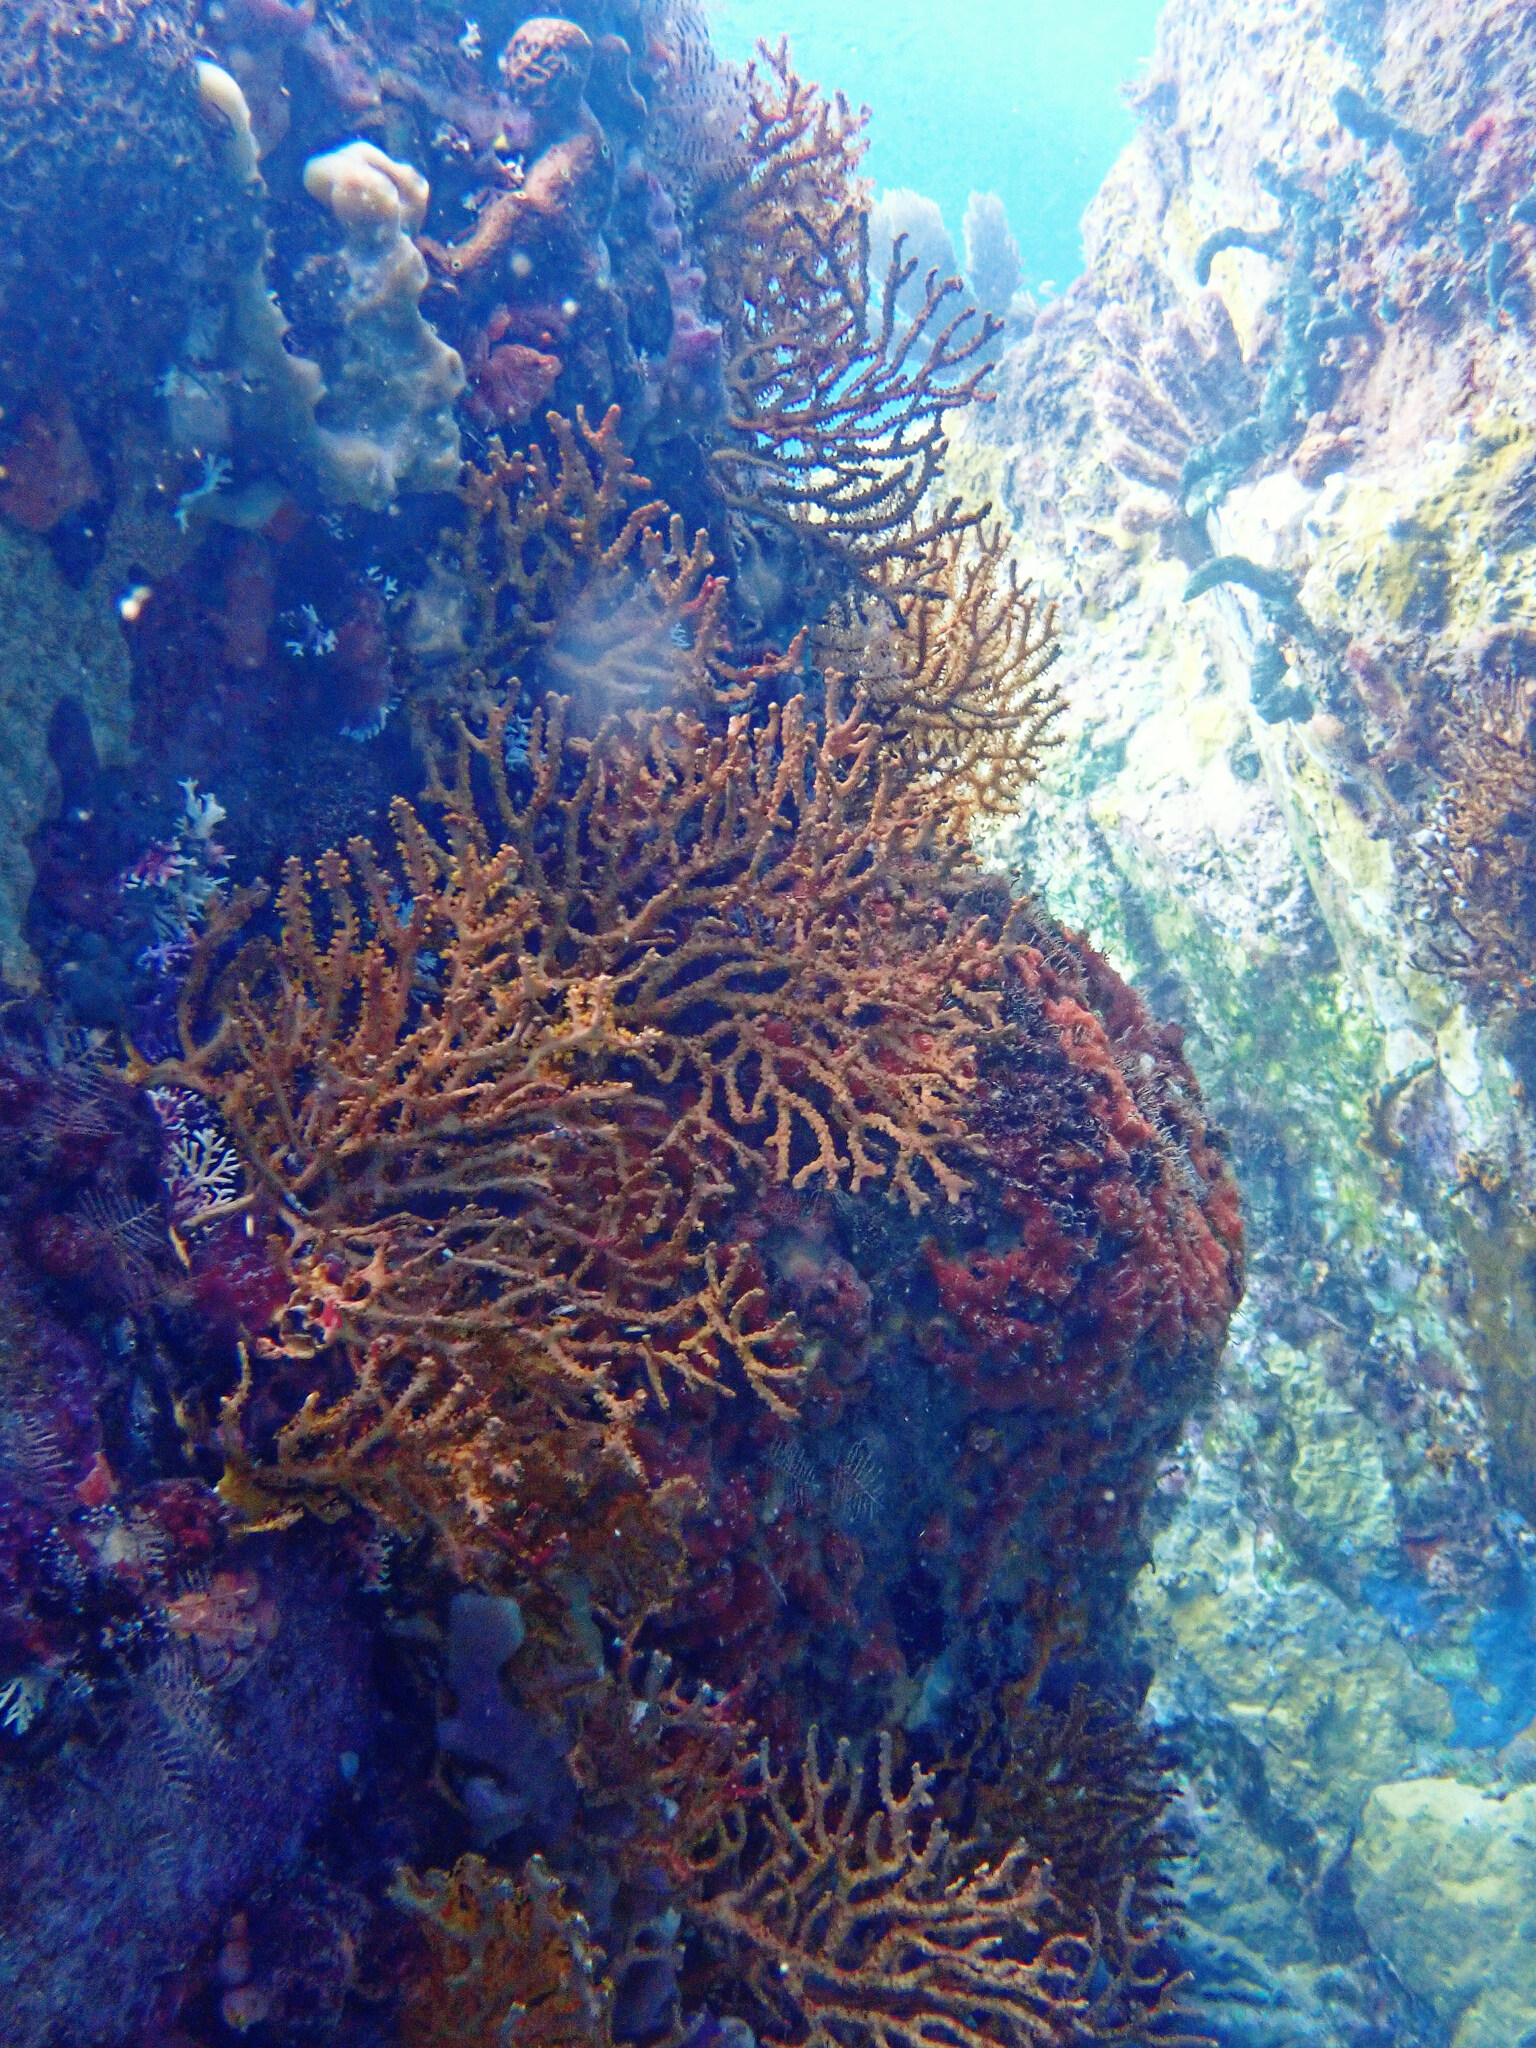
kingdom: Animalia
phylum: Cnidaria
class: Anthozoa
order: Malacalcyonacea
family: Melithaeidae
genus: Iciligorgia
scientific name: Iciligorgia schrammi
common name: Black sea fan
